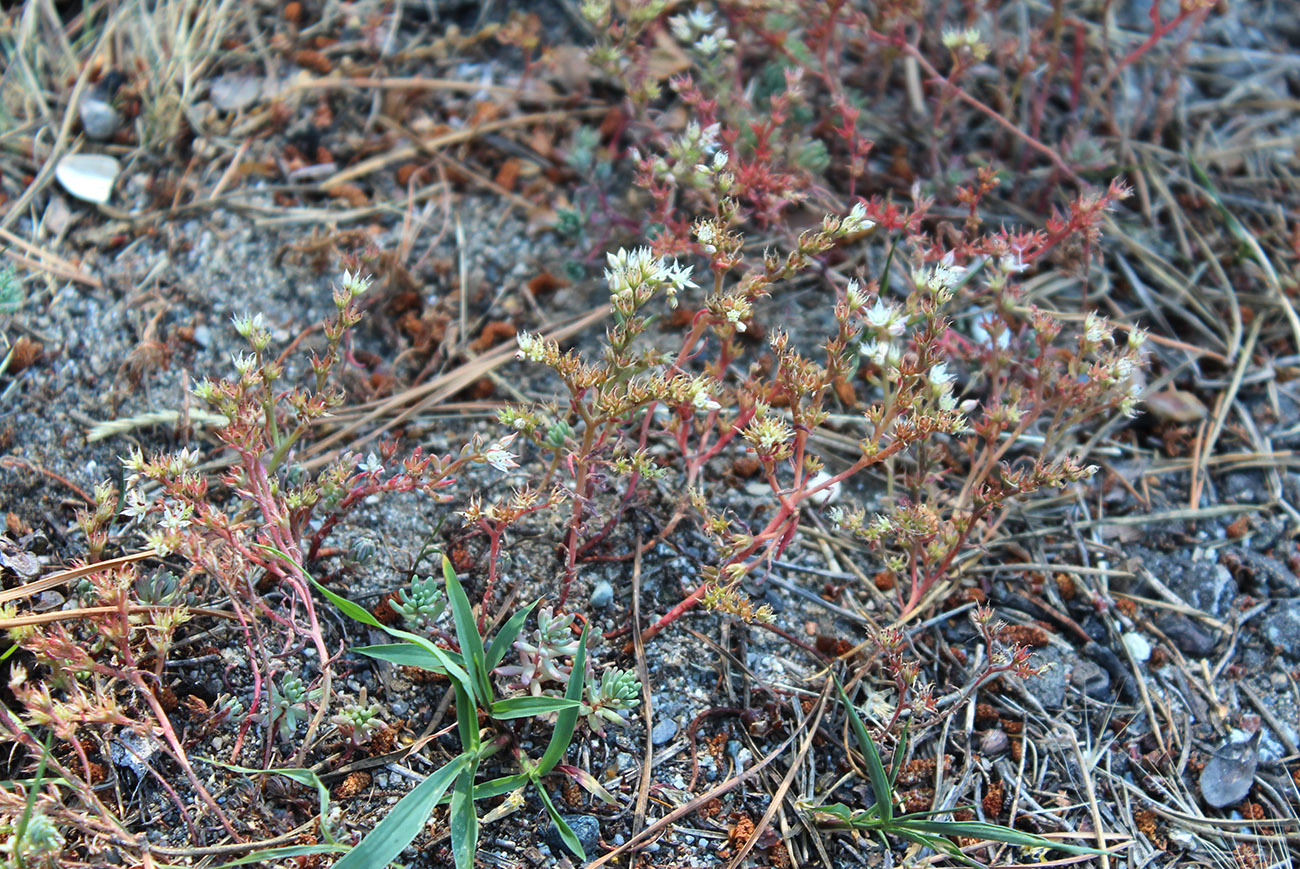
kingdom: Plantae
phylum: Tracheophyta
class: Magnoliopsida
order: Saxifragales
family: Crassulaceae
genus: Sedum
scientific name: Sedum pallidum
